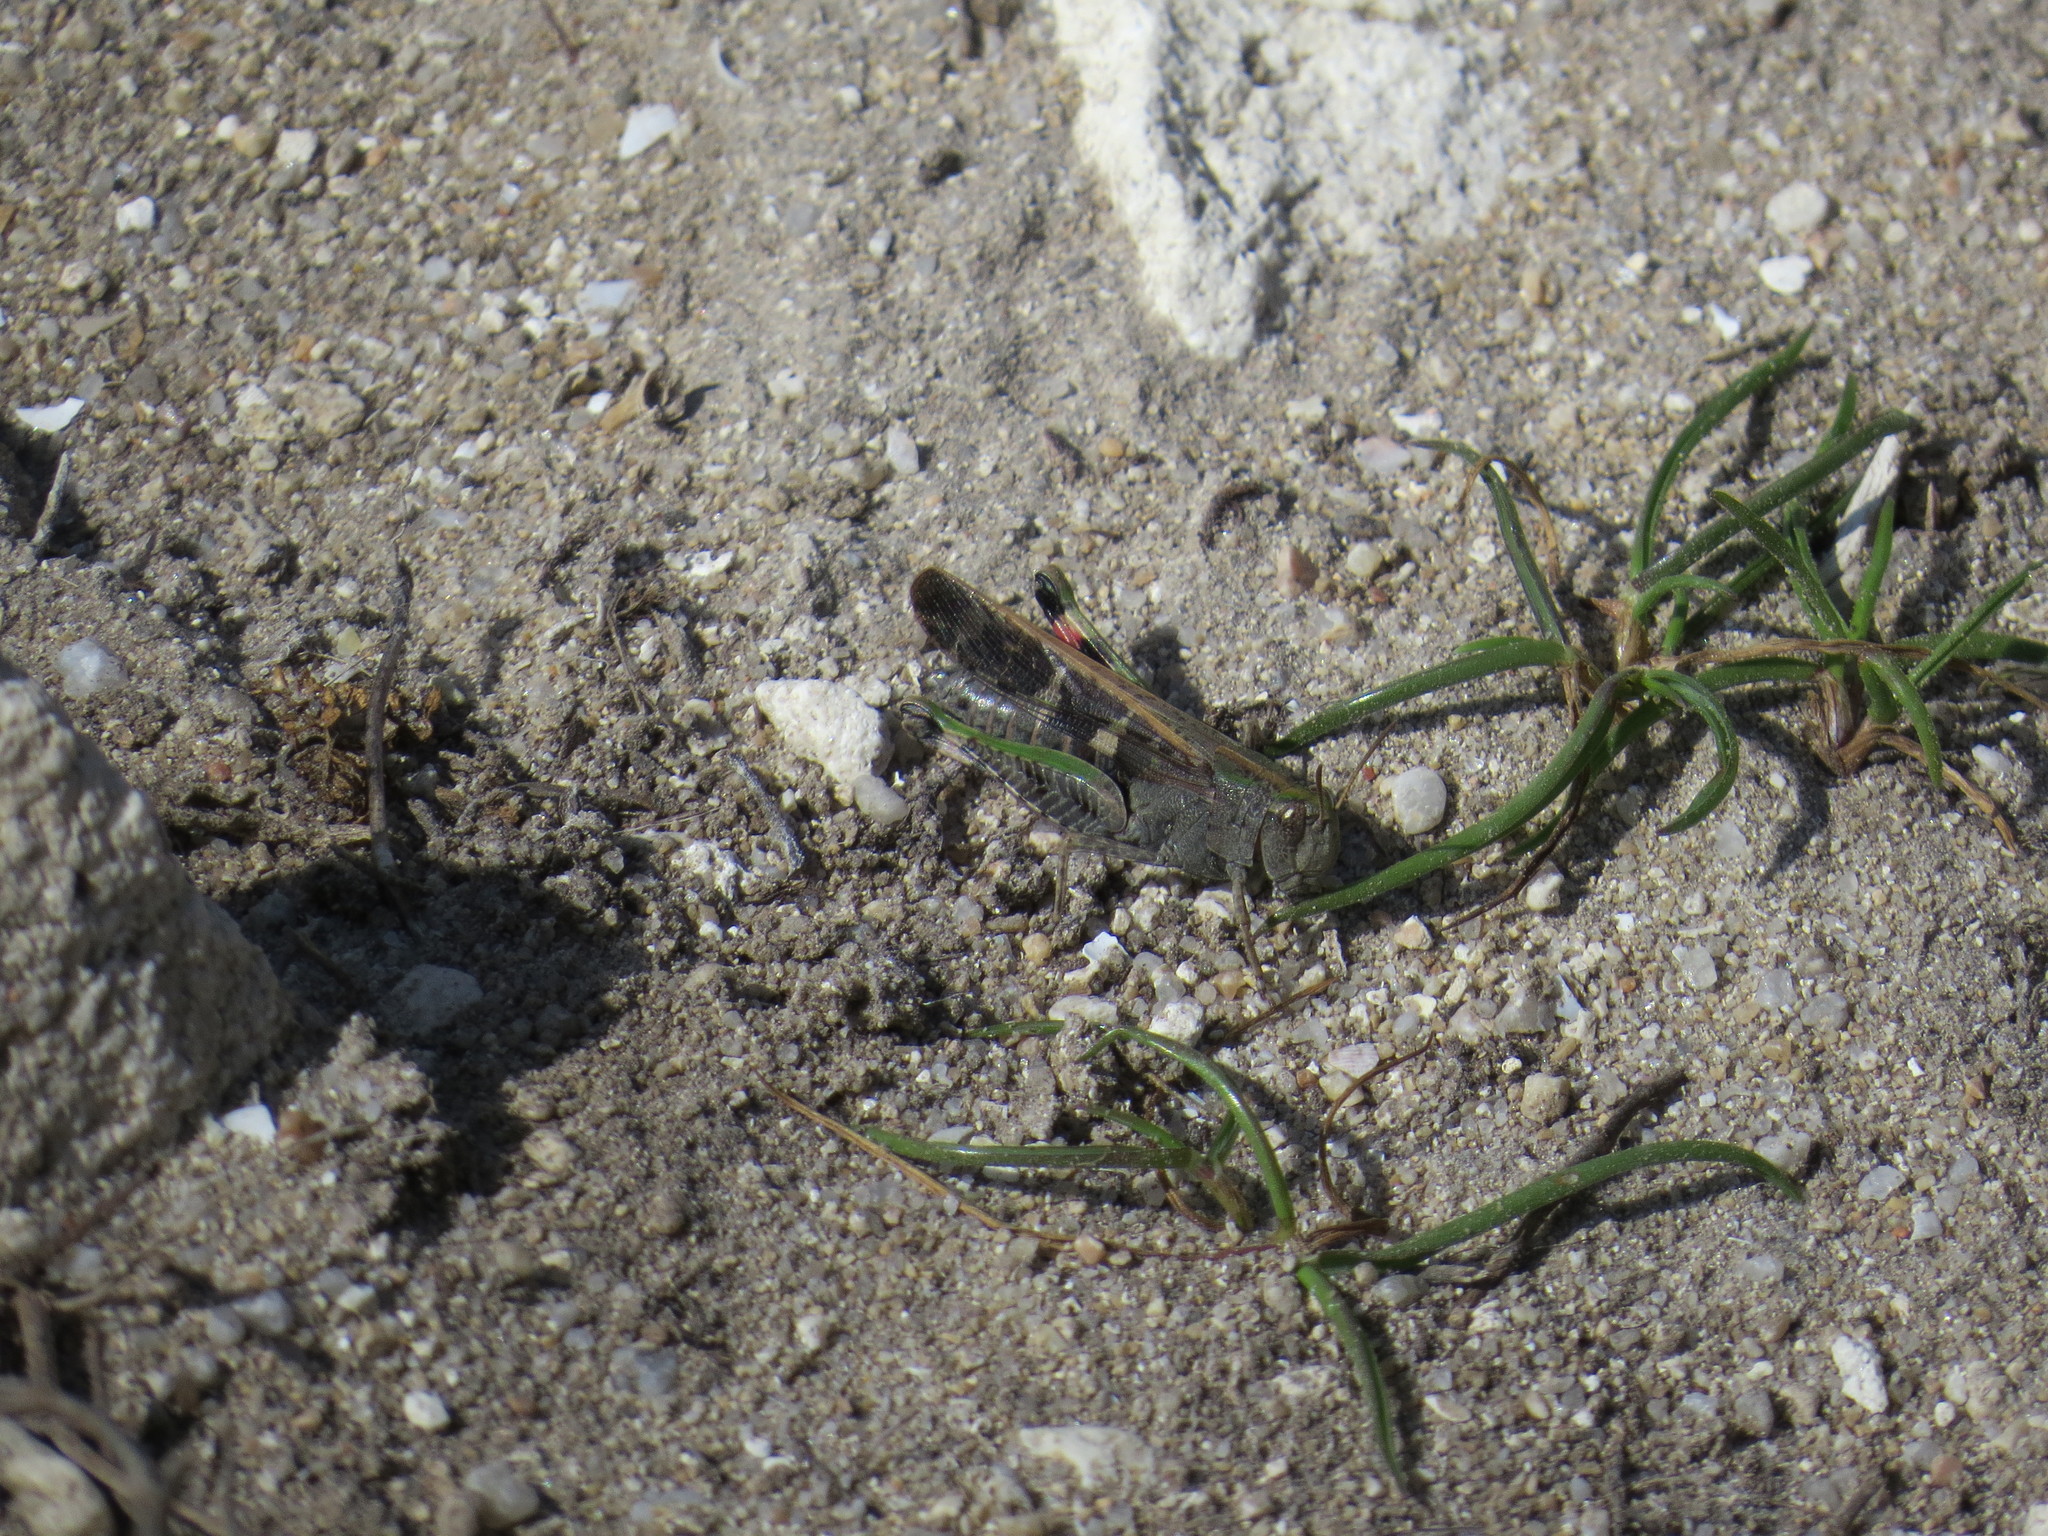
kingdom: Animalia
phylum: Arthropoda
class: Insecta
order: Orthoptera
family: Acrididae
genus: Aiolopus
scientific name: Aiolopus strepens
